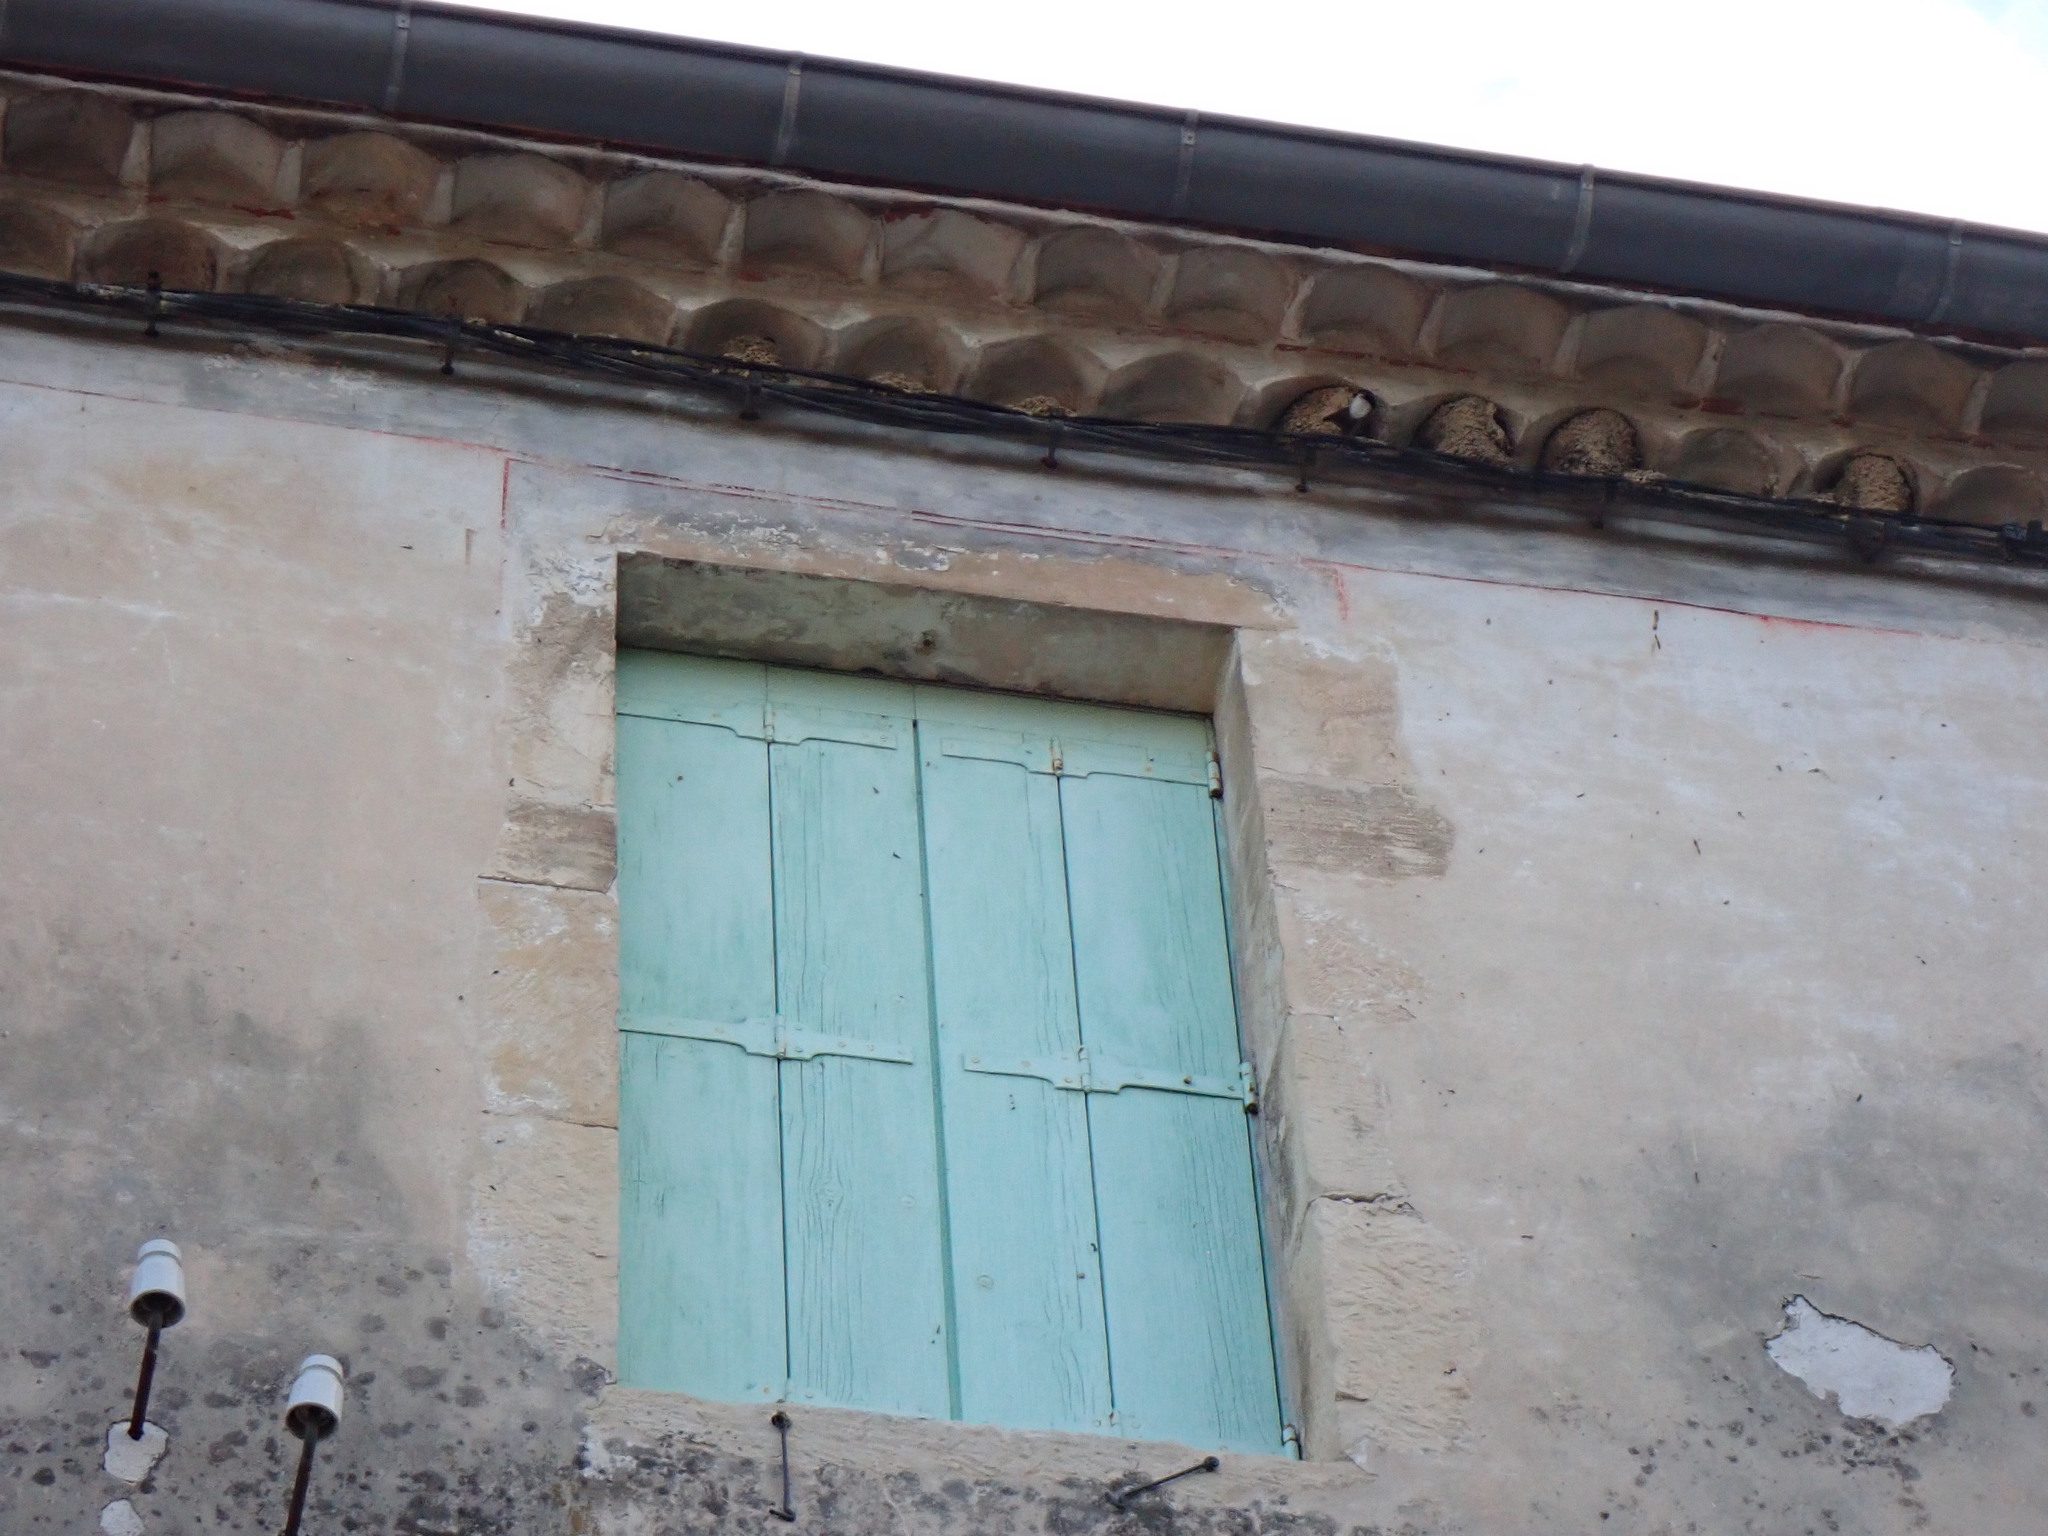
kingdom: Animalia
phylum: Chordata
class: Aves
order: Passeriformes
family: Hirundinidae
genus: Delichon
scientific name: Delichon urbicum
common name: Common house martin
